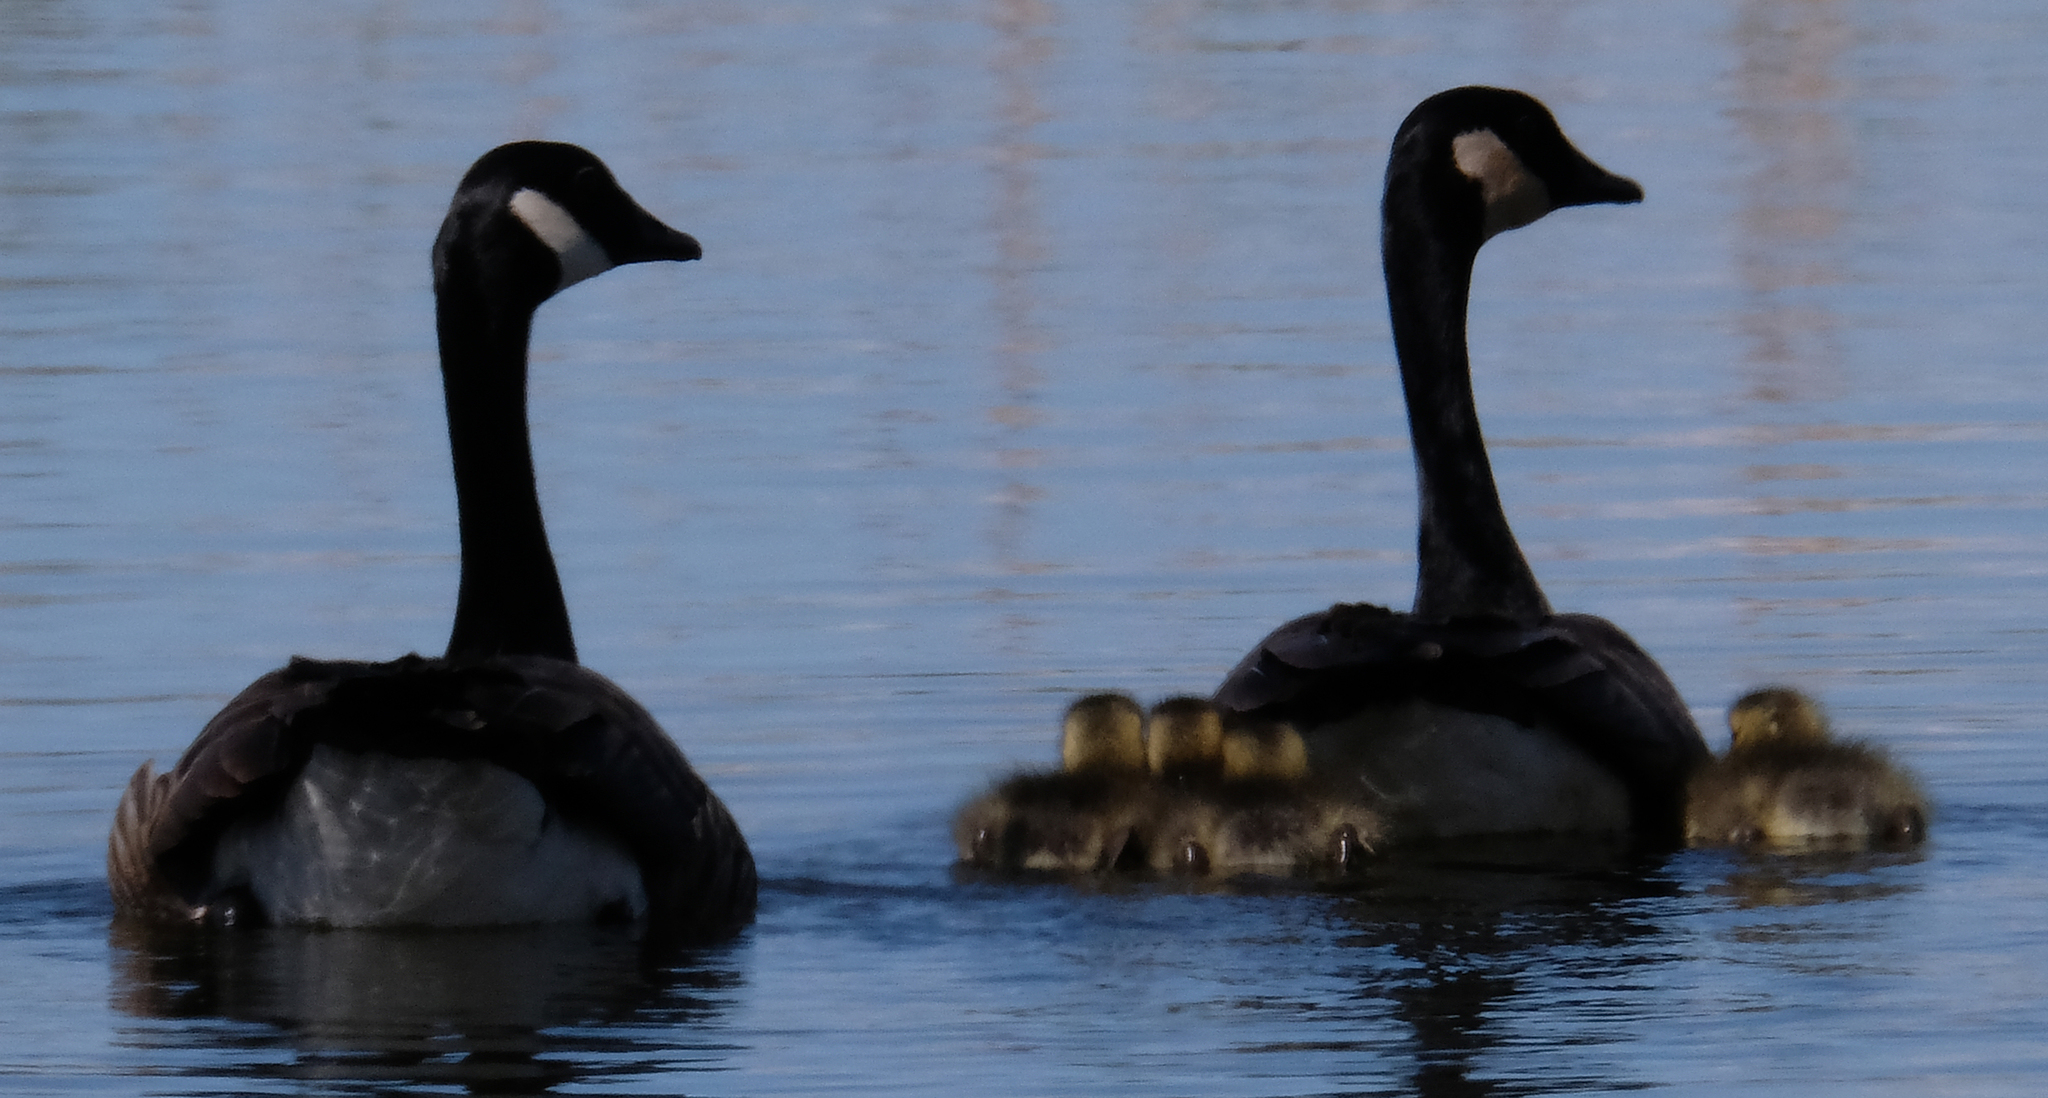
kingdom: Animalia
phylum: Chordata
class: Aves
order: Anseriformes
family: Anatidae
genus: Branta
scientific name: Branta canadensis
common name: Canada goose
